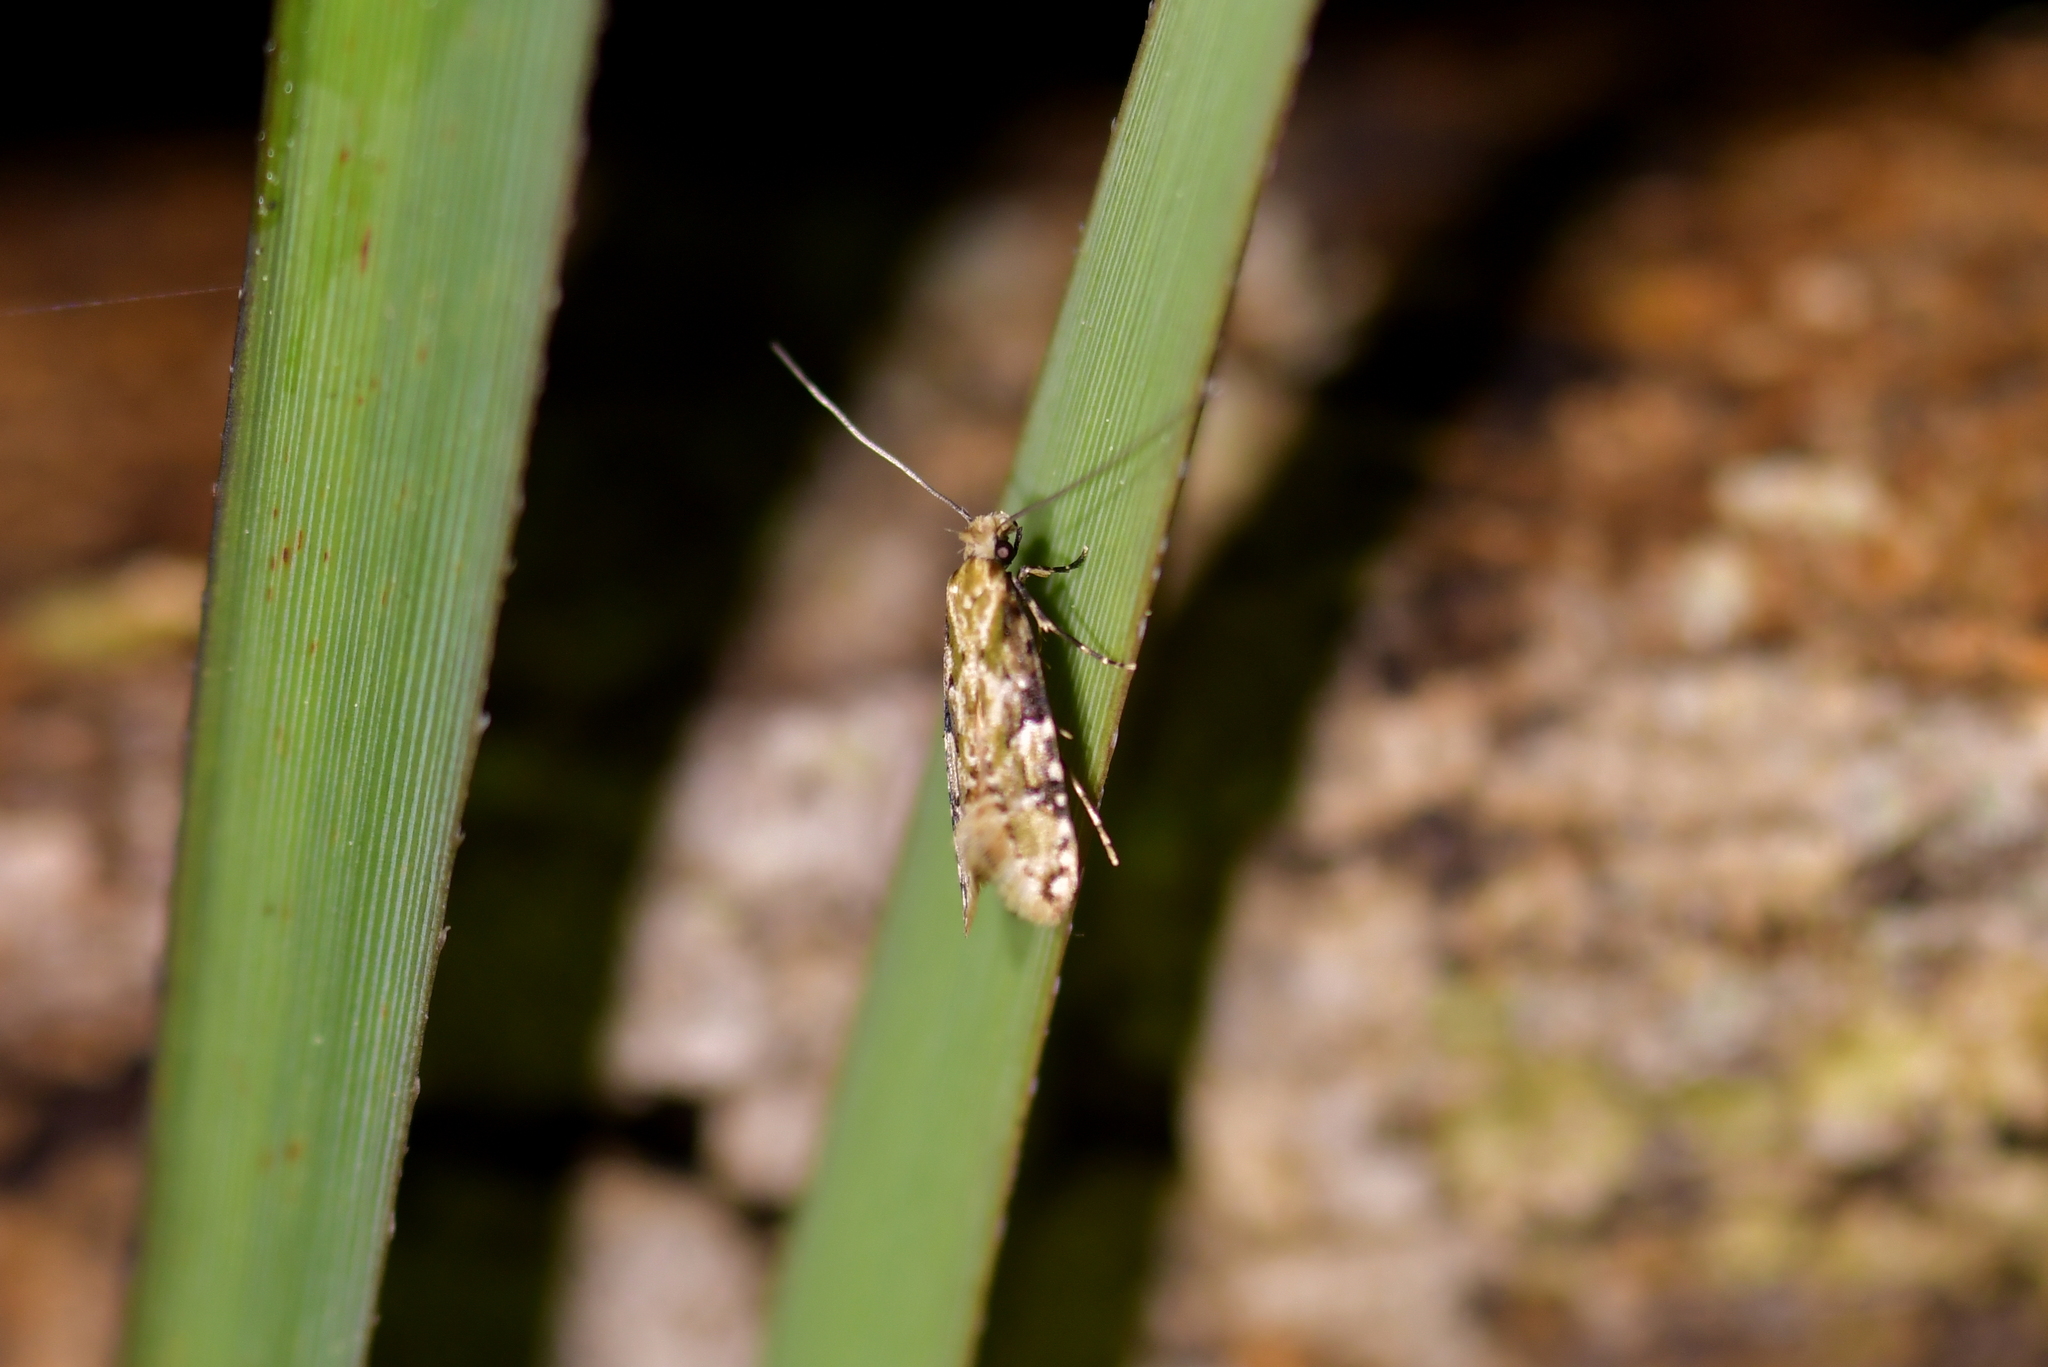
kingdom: Animalia
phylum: Arthropoda
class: Insecta
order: Lepidoptera
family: Tineidae
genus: Crypsitricha
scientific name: Crypsitricha mesotypa
